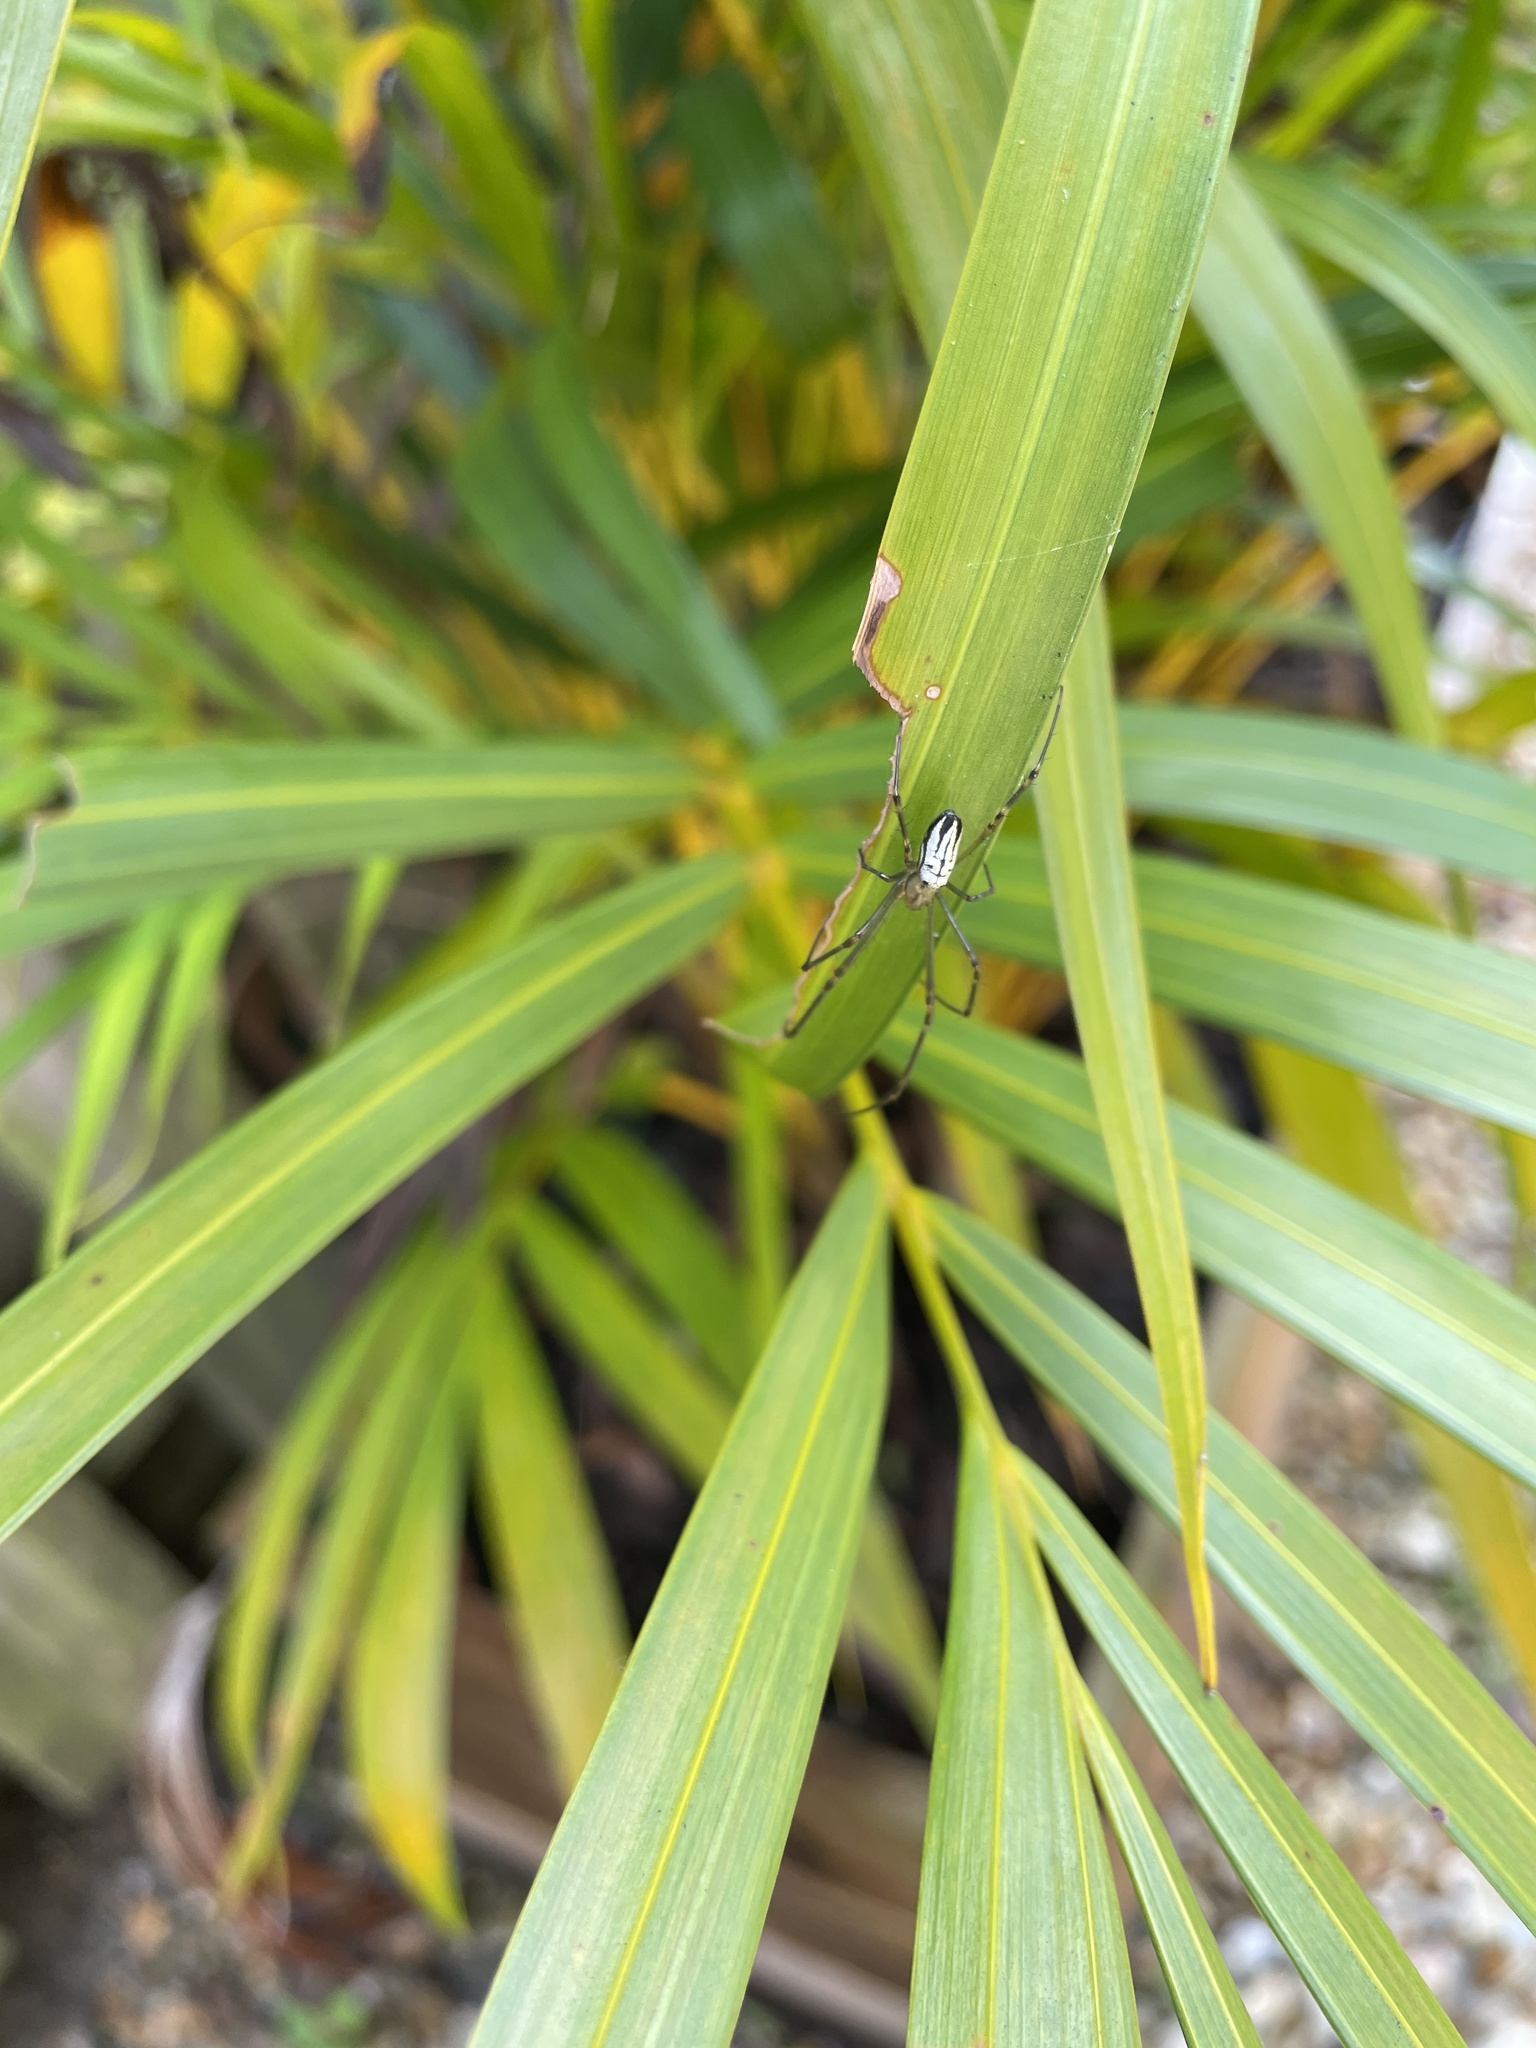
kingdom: Animalia
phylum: Arthropoda
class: Arachnida
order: Araneae
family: Tetragnathidae
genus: Leucauge
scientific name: Leucauge dromedaria
